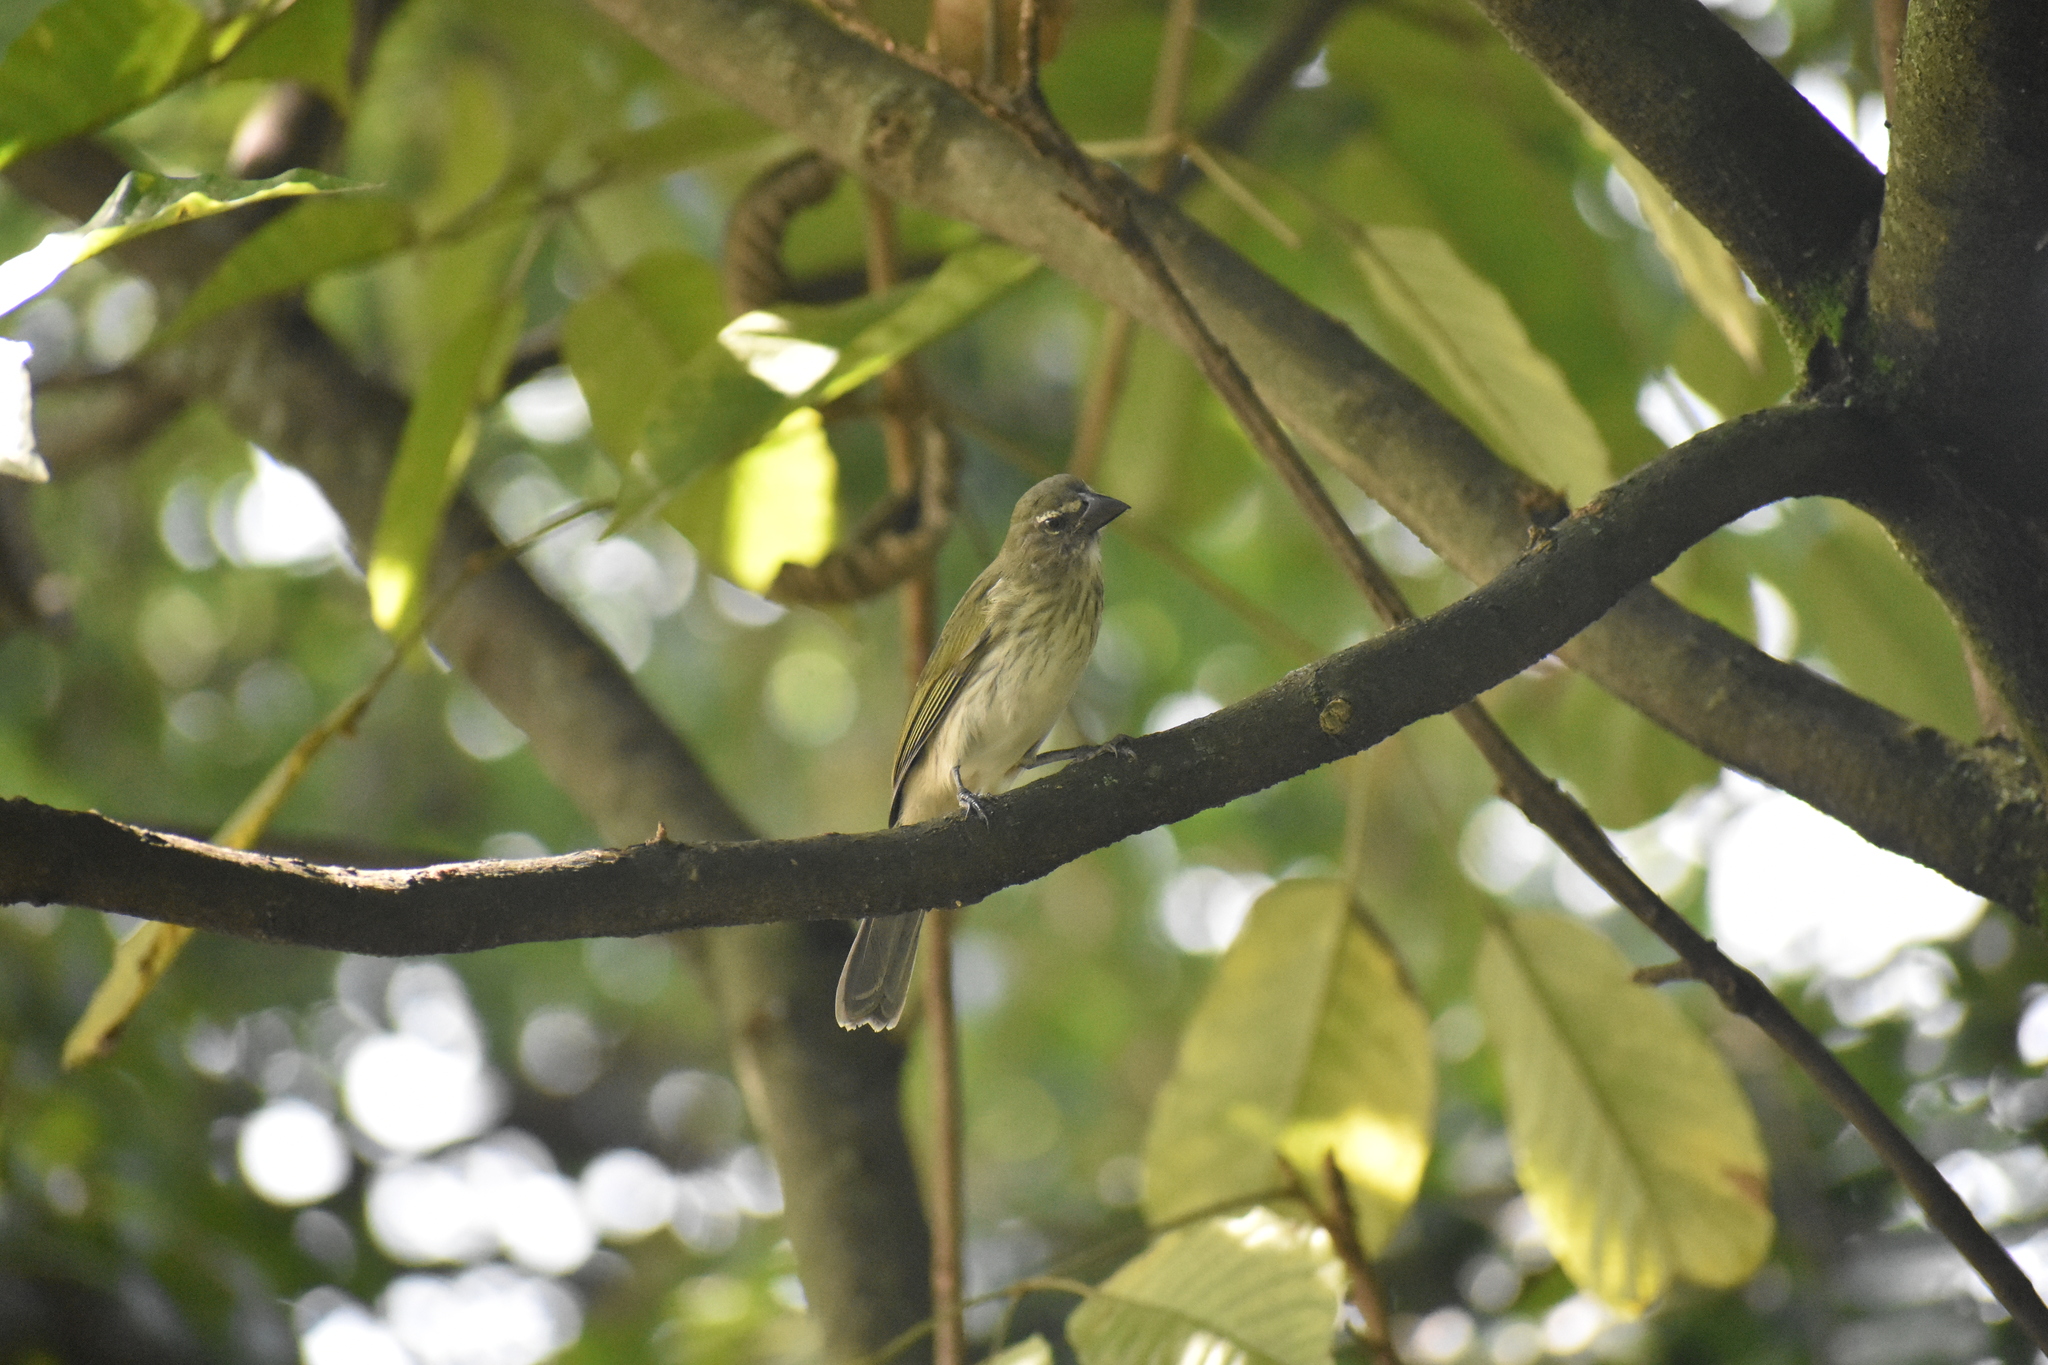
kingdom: Animalia
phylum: Chordata
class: Aves
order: Passeriformes
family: Thraupidae
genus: Saltator
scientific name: Saltator striatipectus
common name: Streaked saltator
